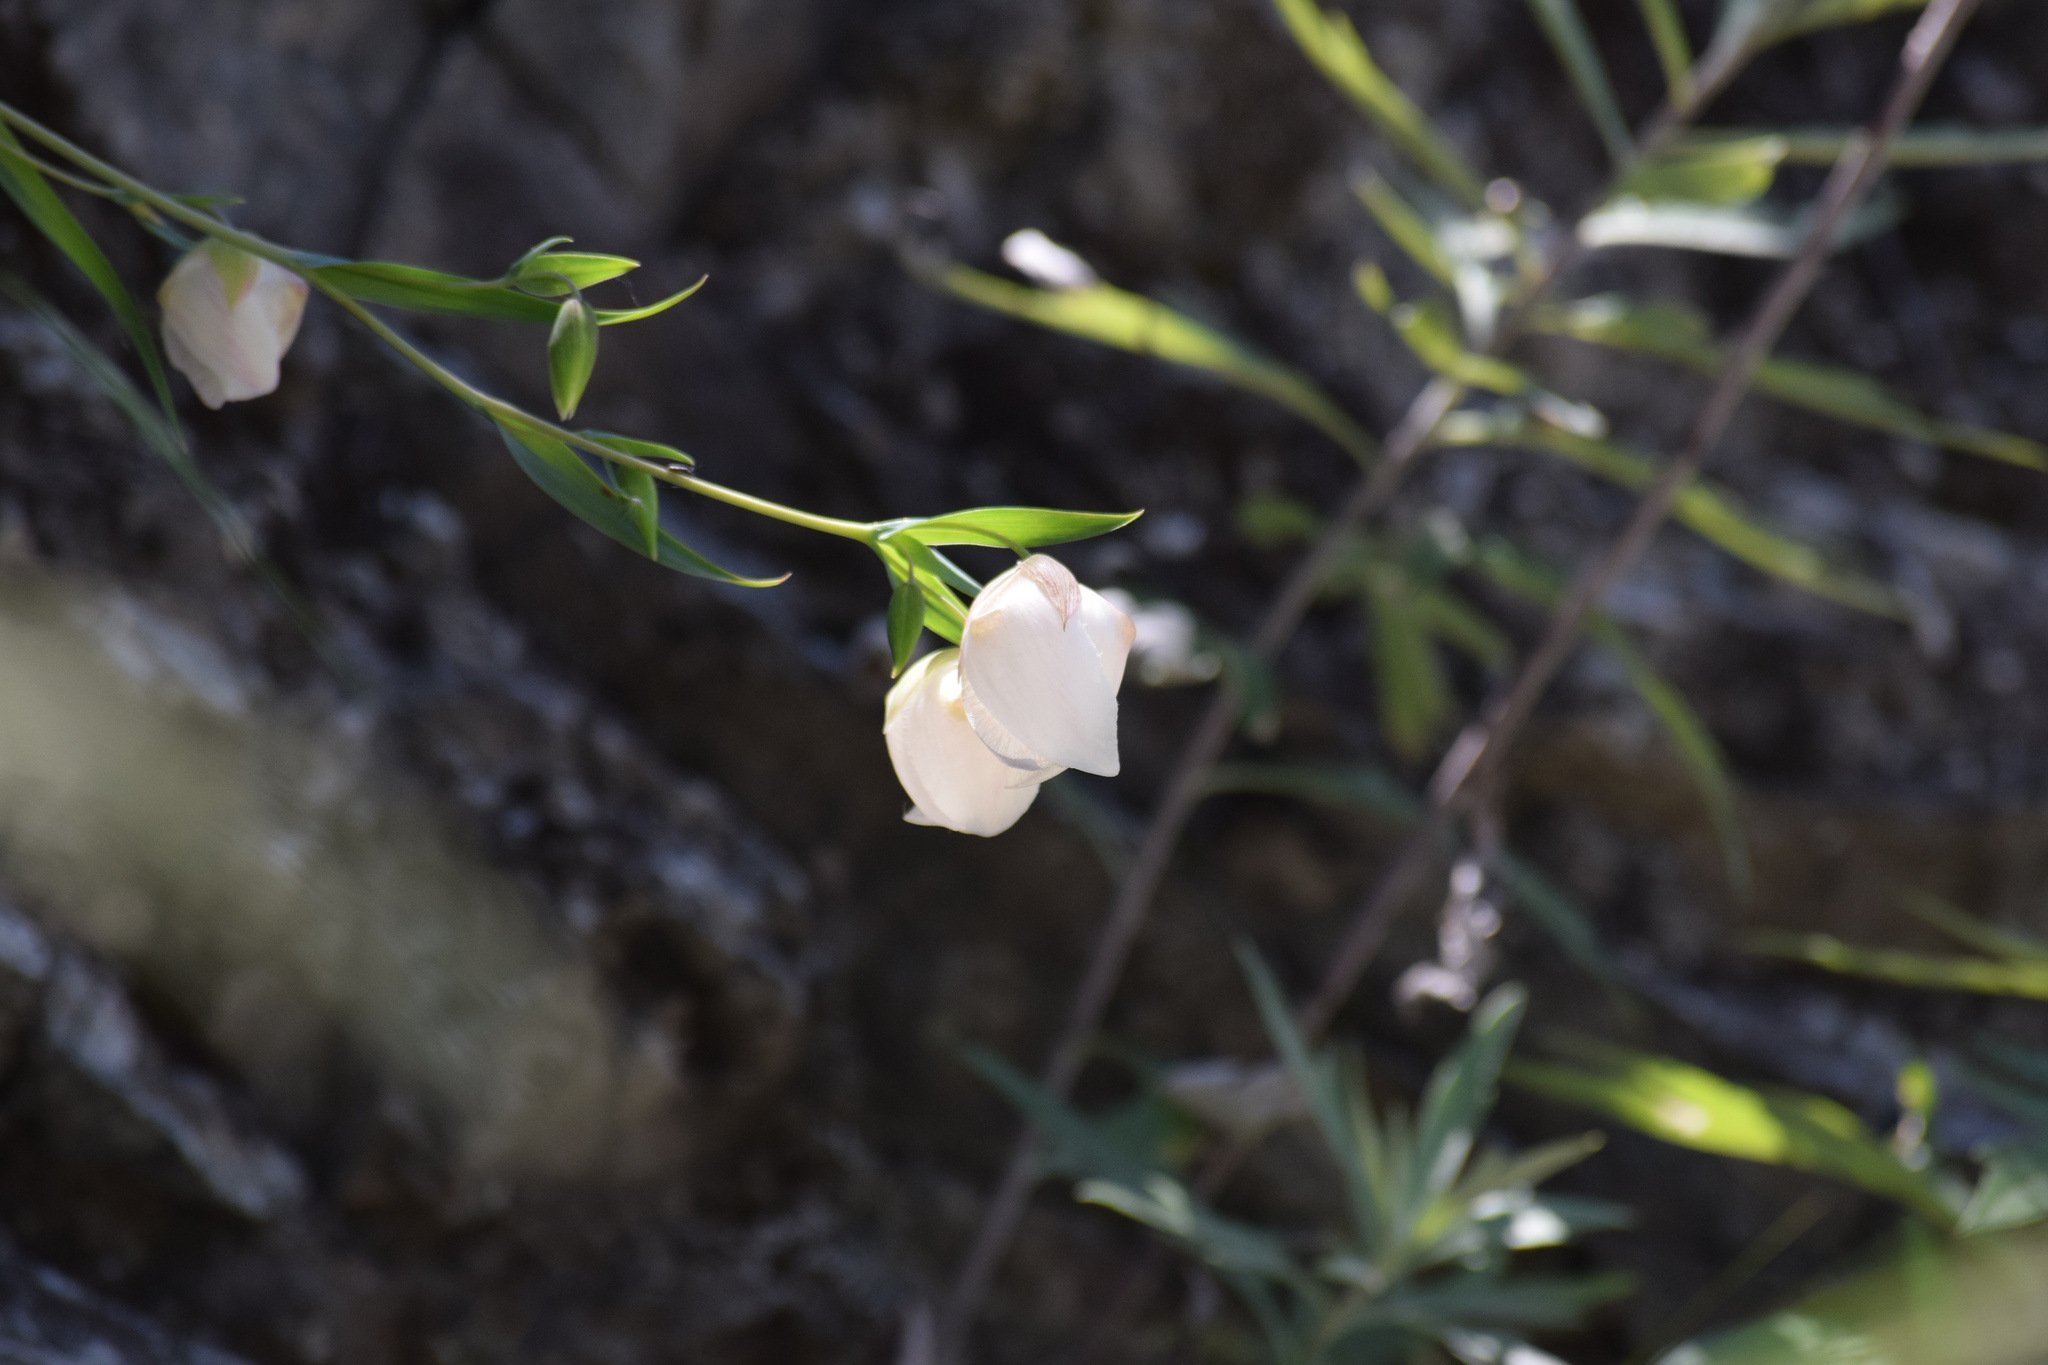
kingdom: Plantae
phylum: Tracheophyta
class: Liliopsida
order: Liliales
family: Liliaceae
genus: Calochortus
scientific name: Calochortus albus
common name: Fairy-lantern
